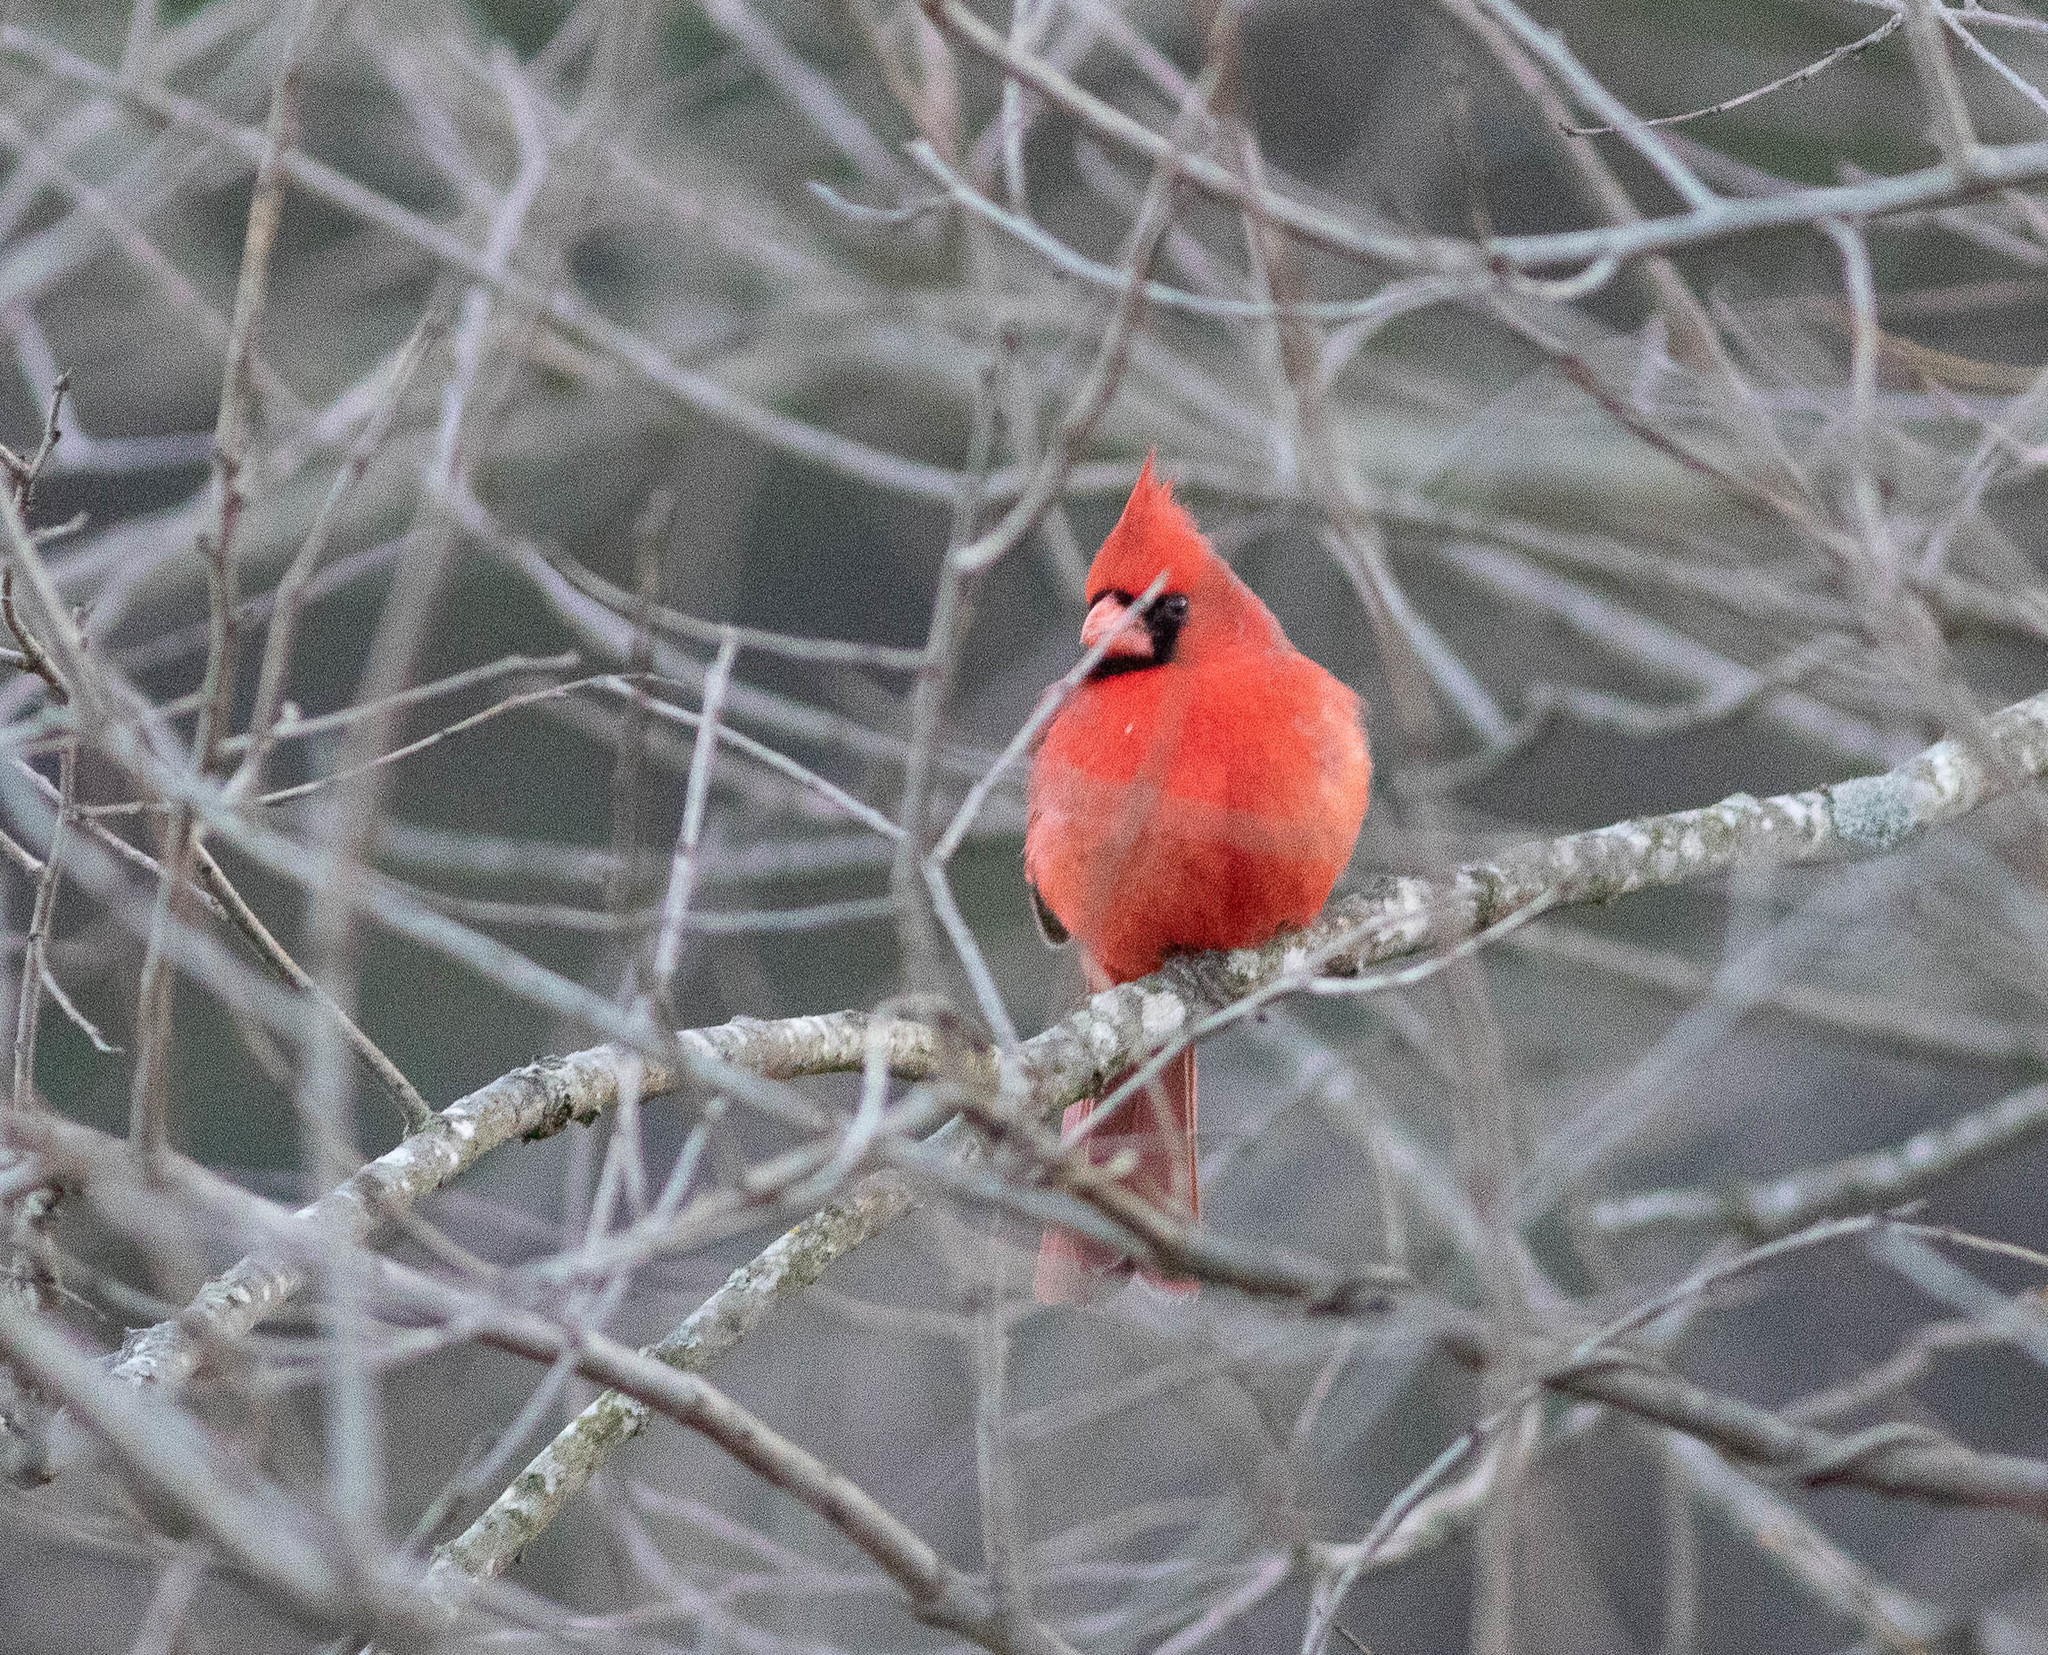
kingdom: Animalia
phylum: Chordata
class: Aves
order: Passeriformes
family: Cardinalidae
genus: Cardinalis
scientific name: Cardinalis cardinalis
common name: Northern cardinal
